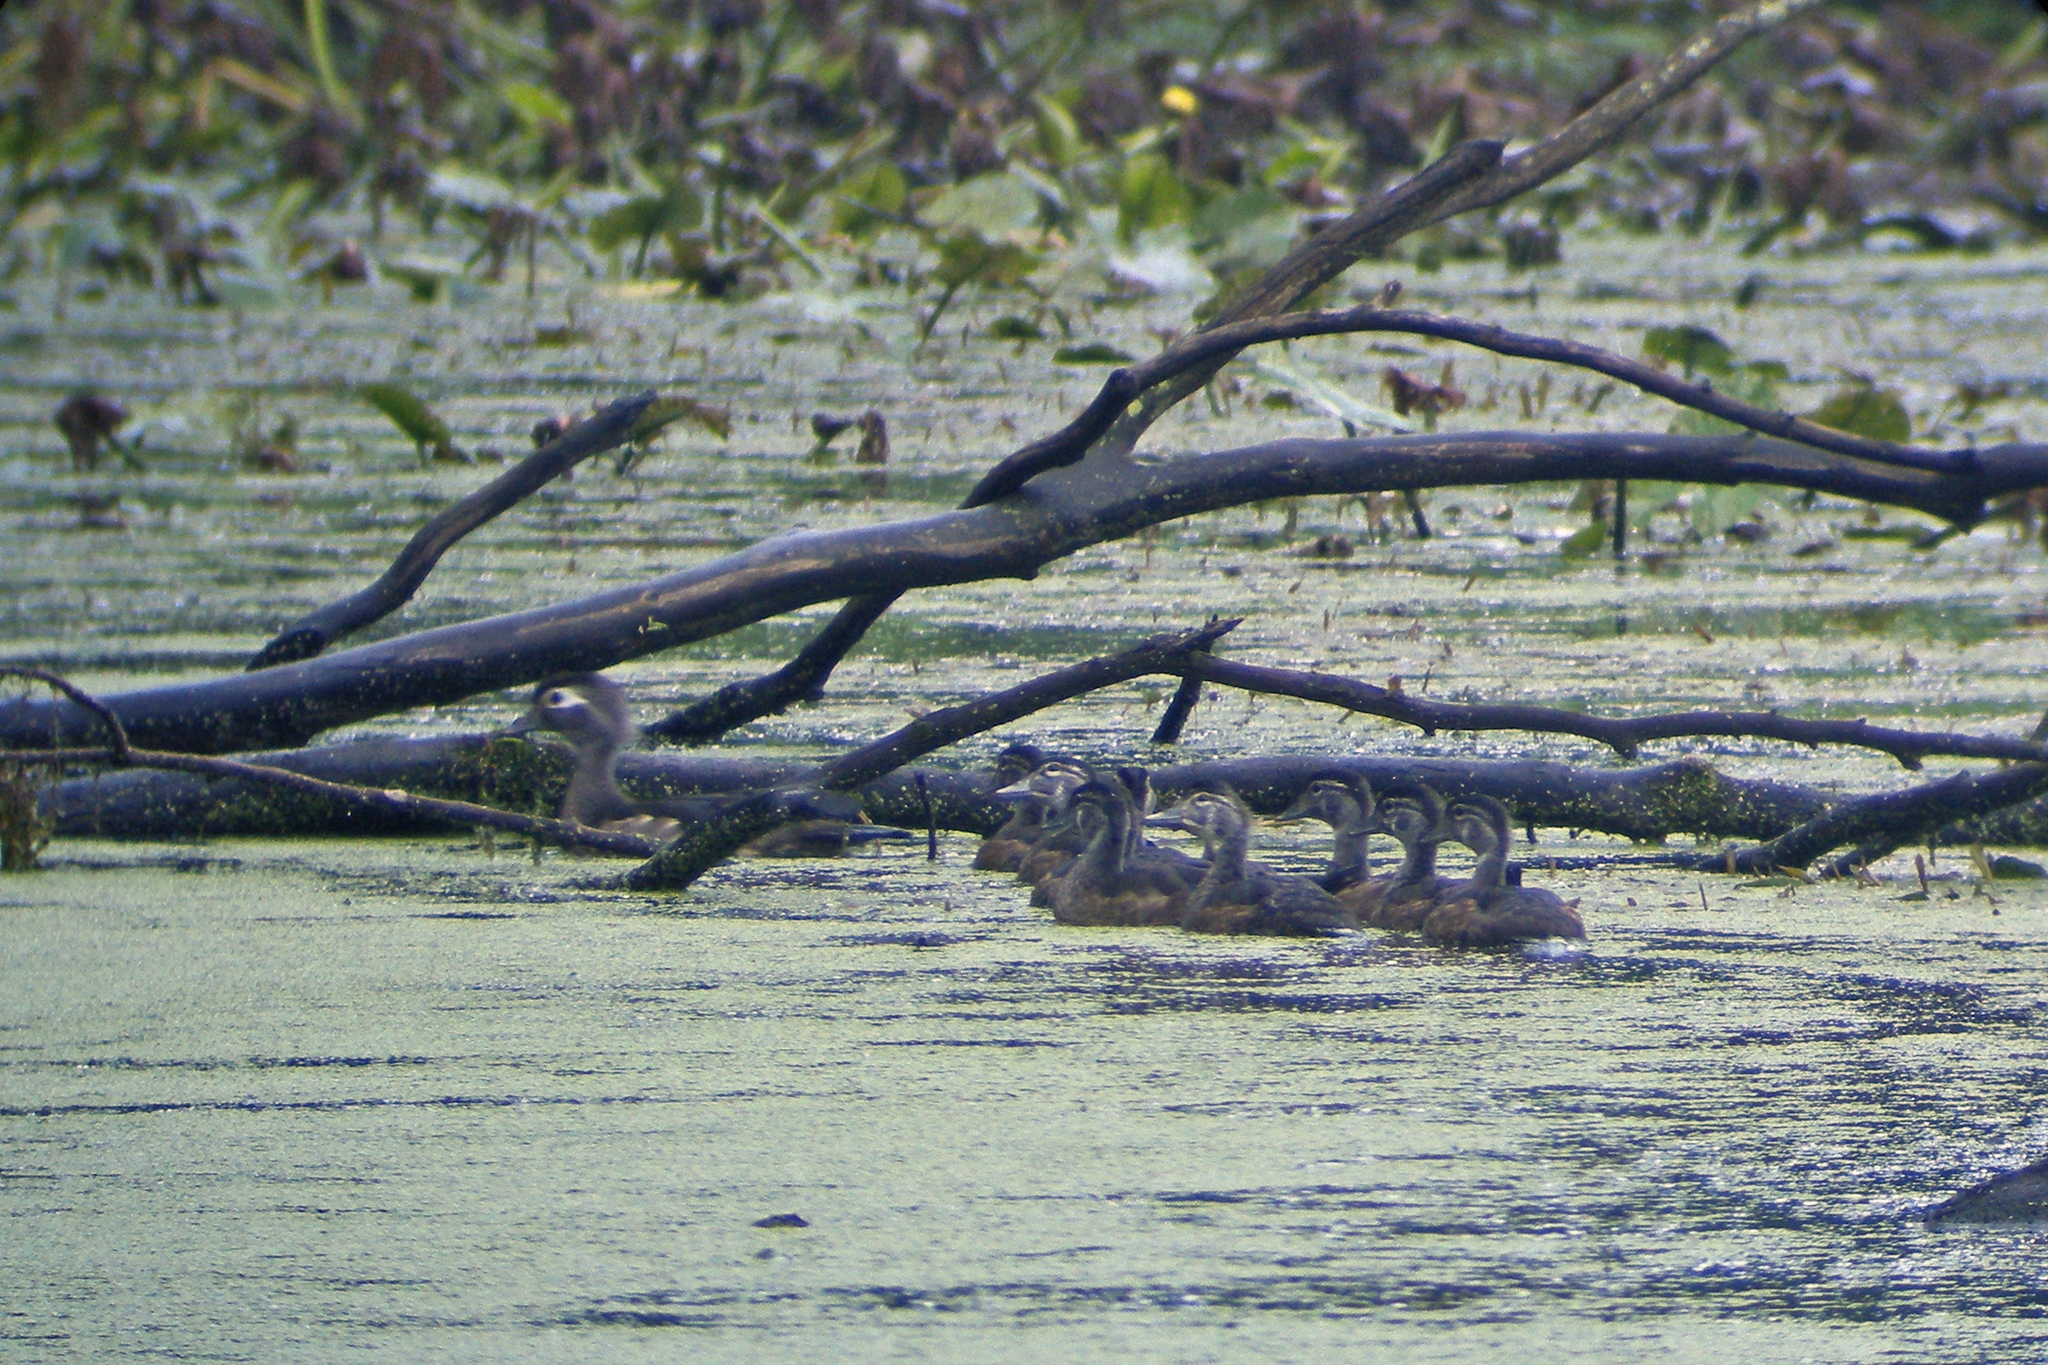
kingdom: Animalia
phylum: Chordata
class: Aves
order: Anseriformes
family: Anatidae
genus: Aix
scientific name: Aix sponsa
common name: Wood duck
